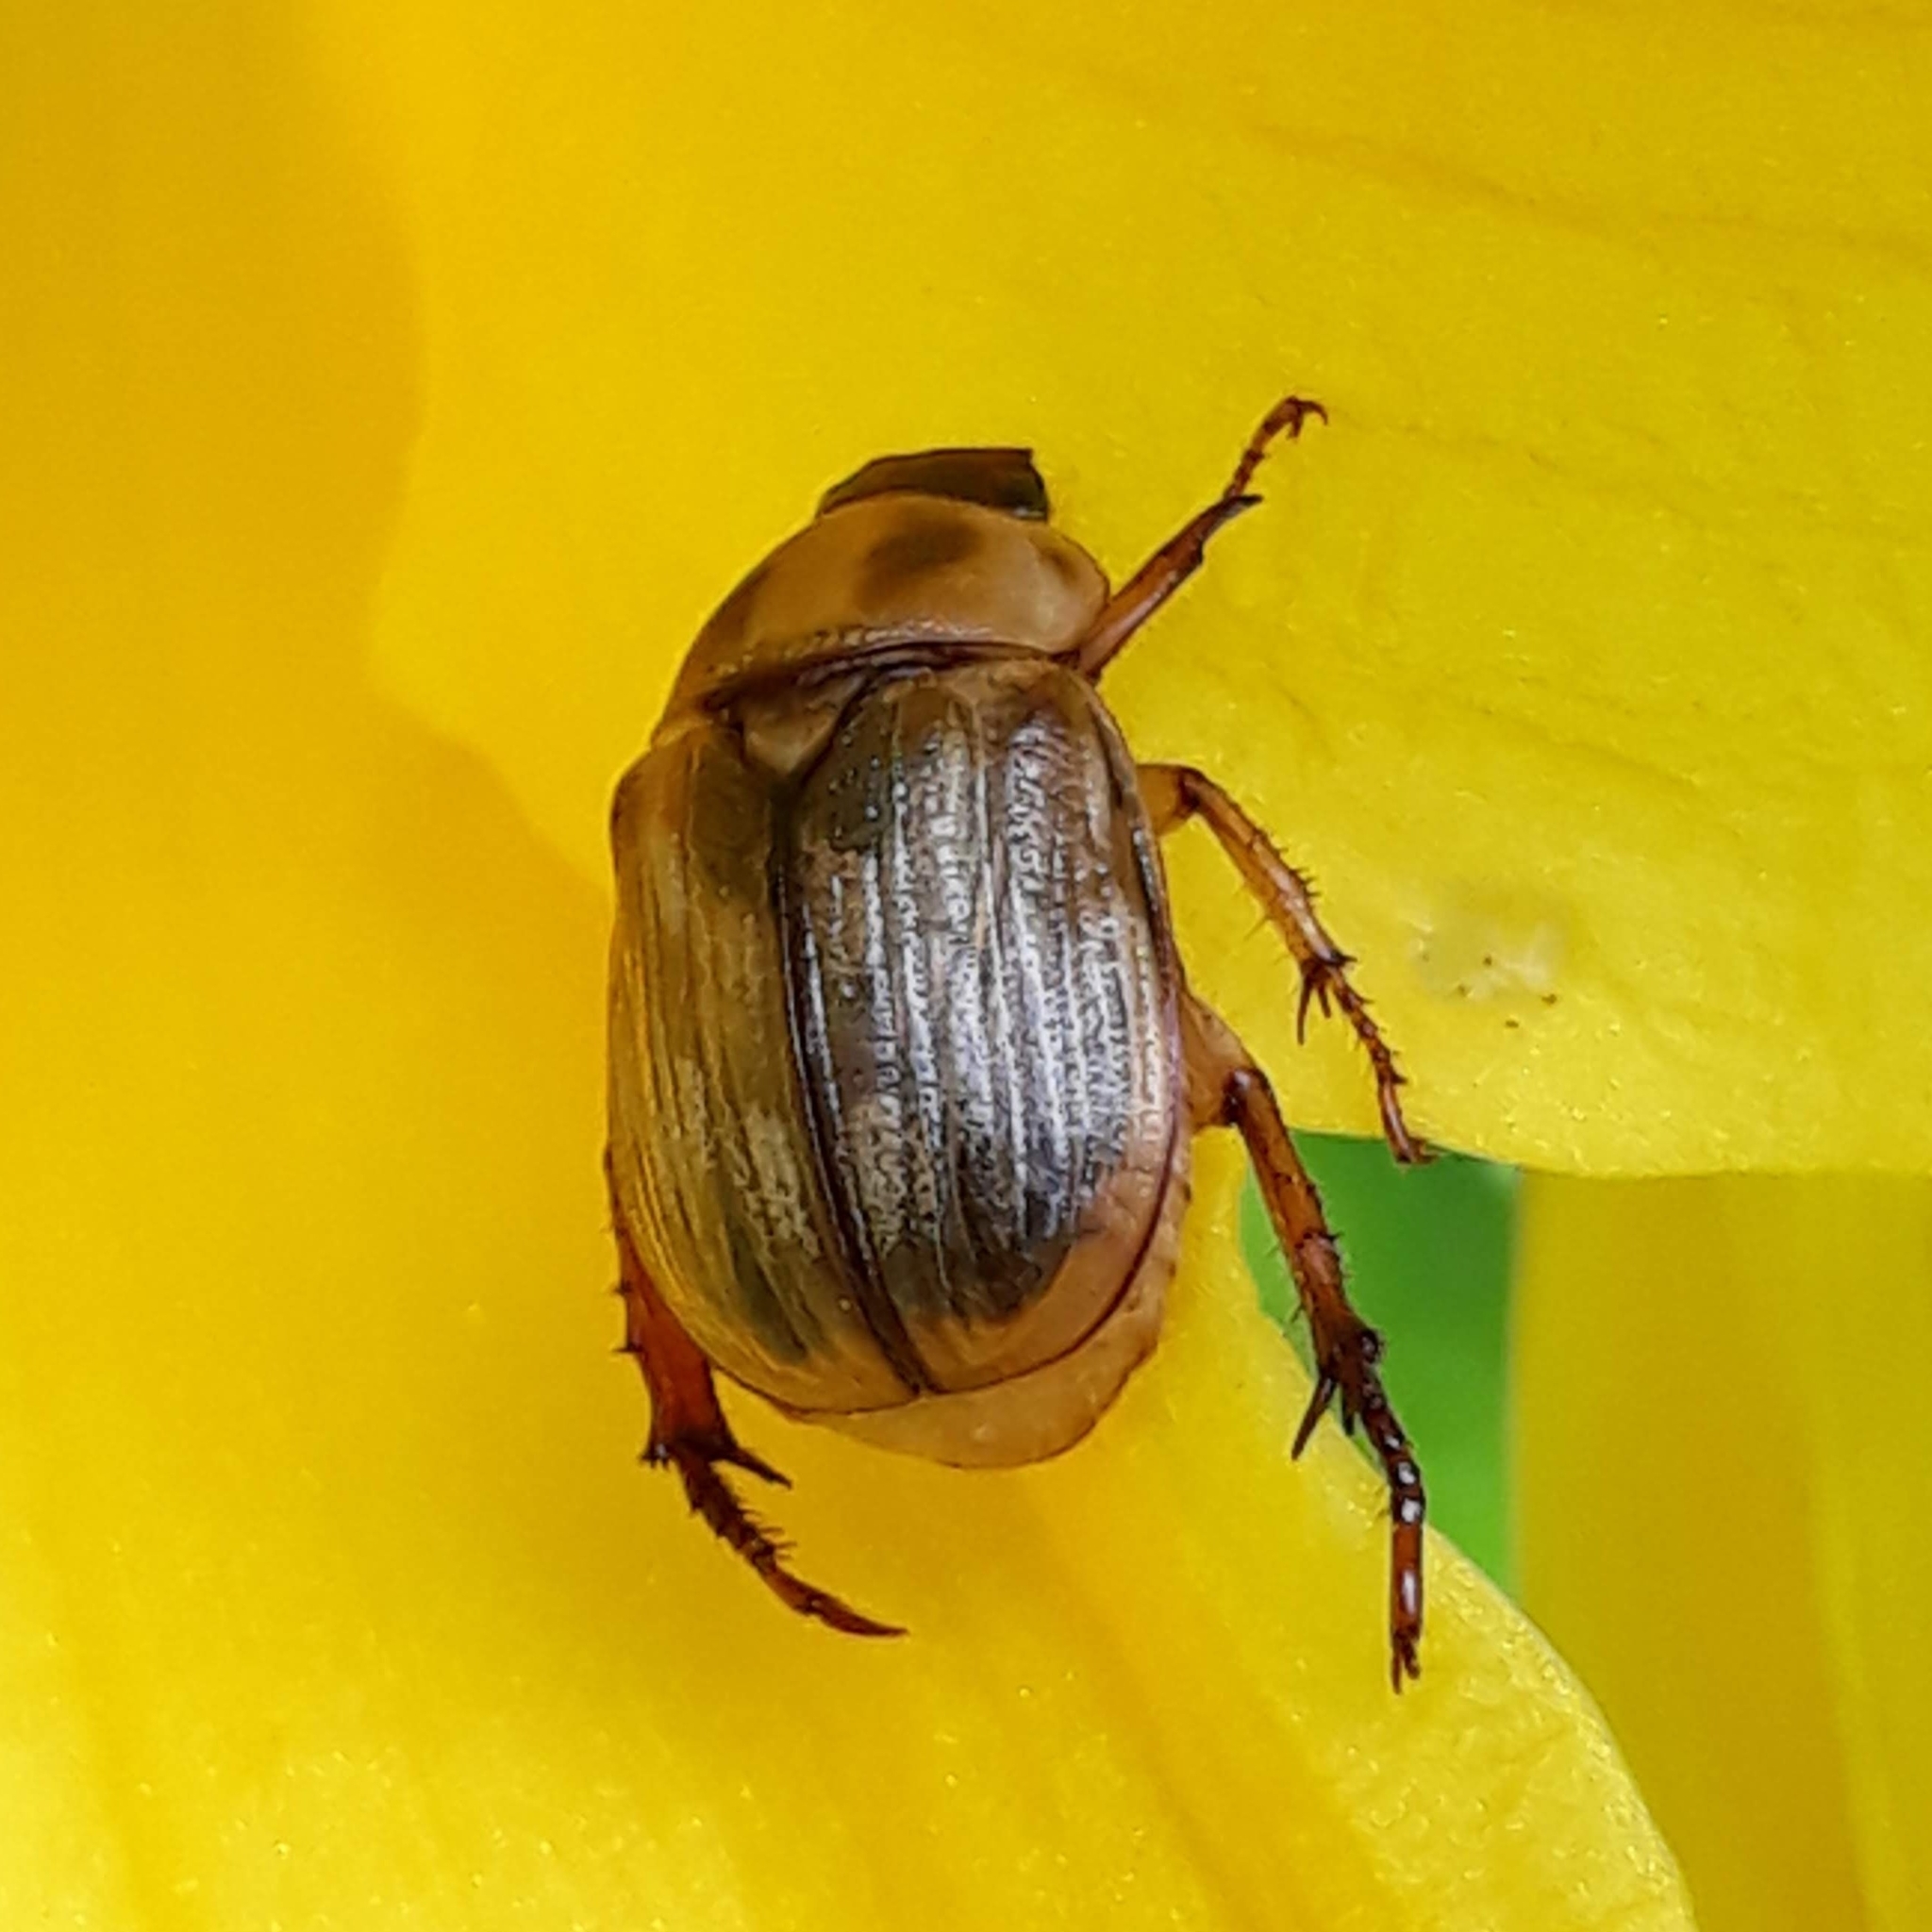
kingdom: Animalia
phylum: Arthropoda
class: Insecta
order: Coleoptera
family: Scarabaeidae
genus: Exomala
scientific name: Exomala orientalis
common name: Oriental beetle
